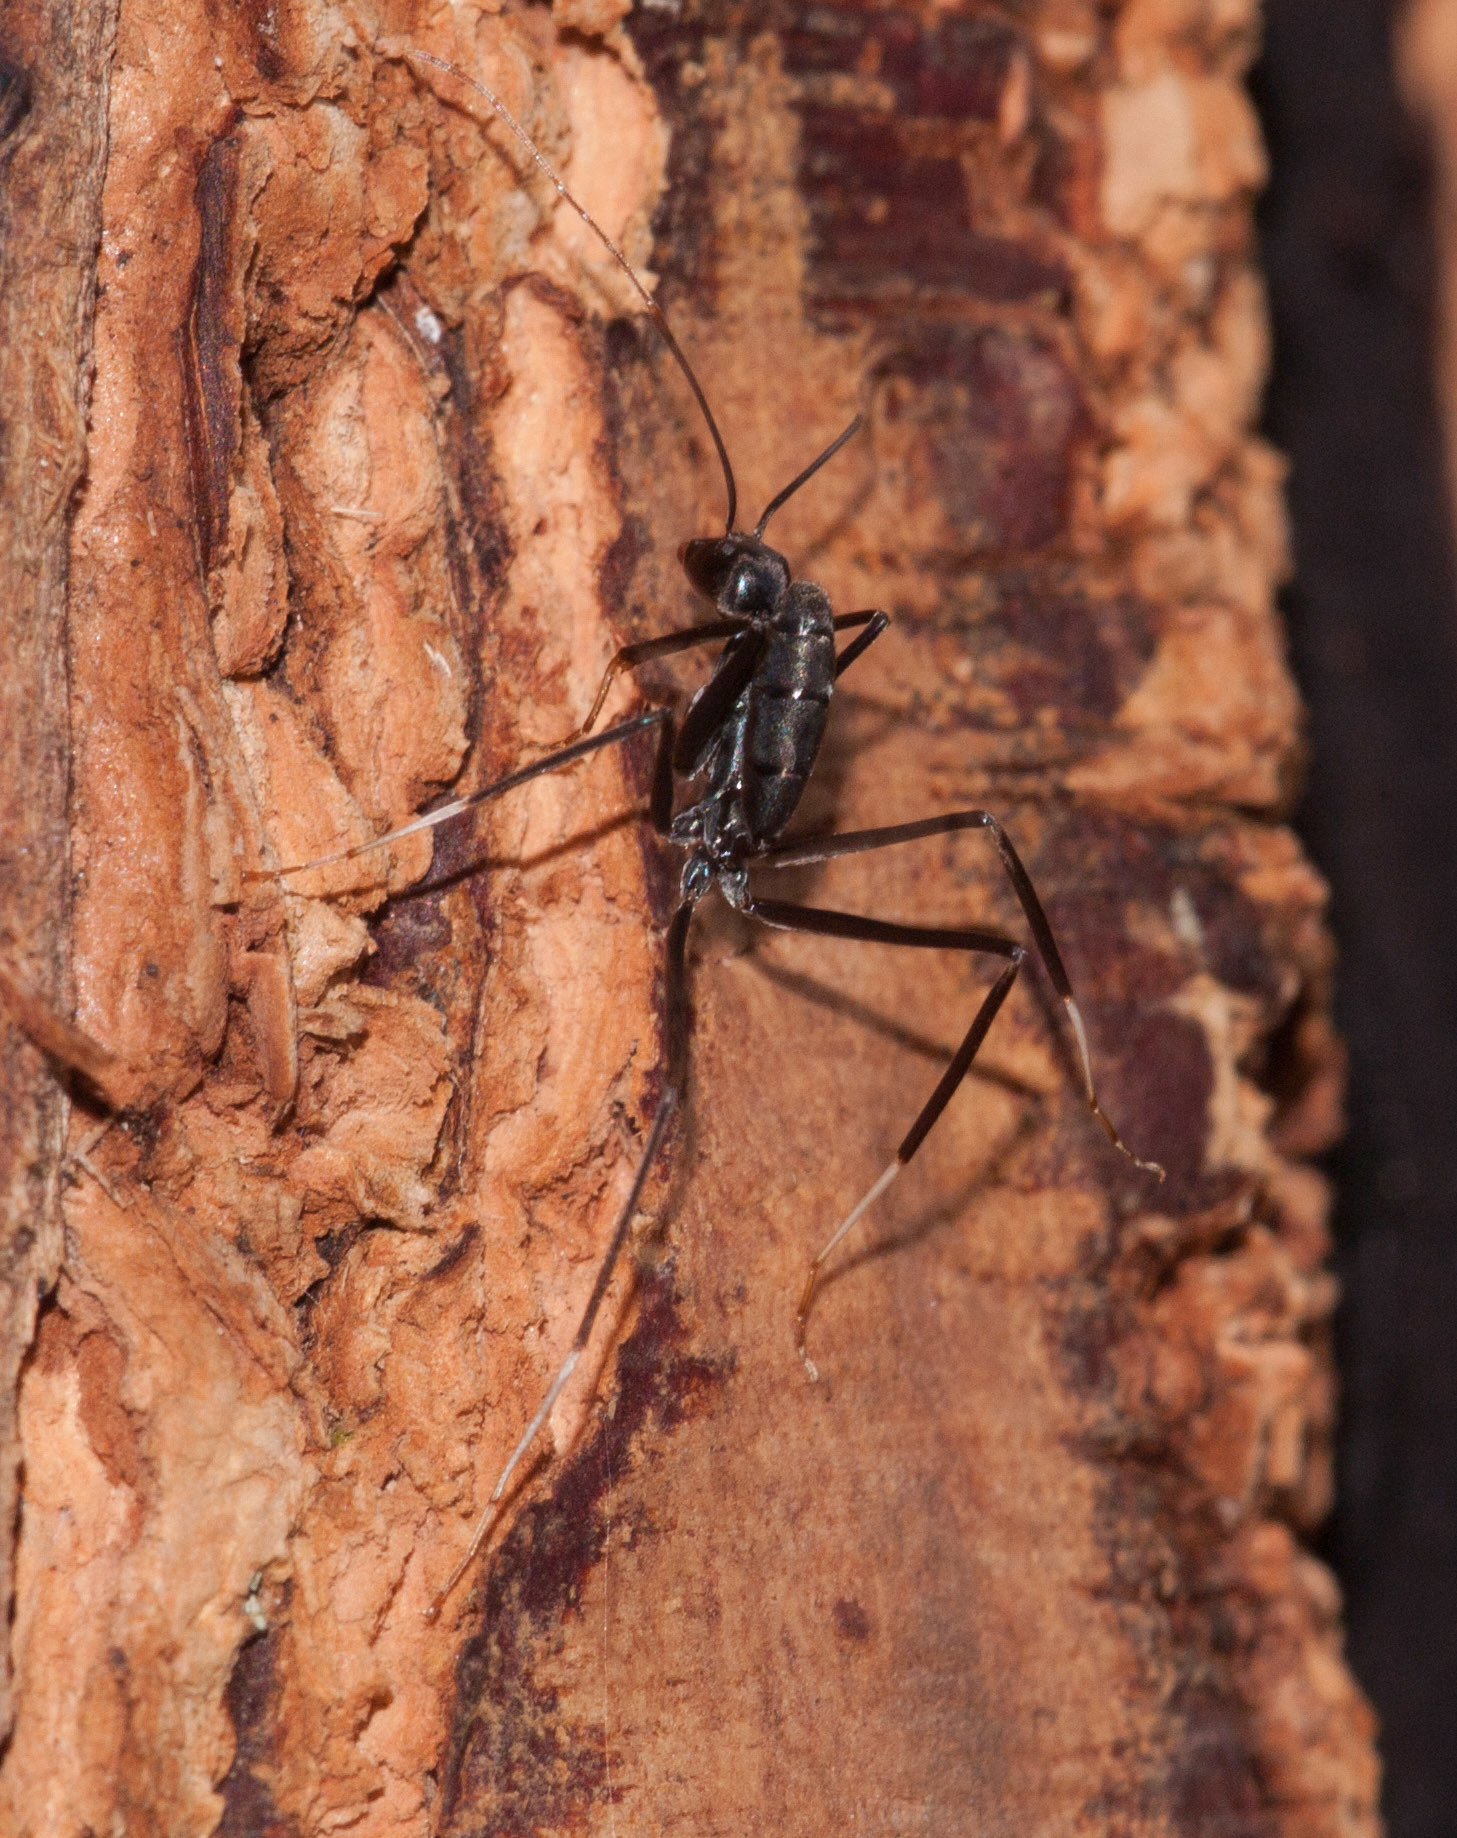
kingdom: Animalia
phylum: Arthropoda
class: Insecta
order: Hymenoptera
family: Formicidae
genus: Leptomyrmex
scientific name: Leptomyrmex unicolor
